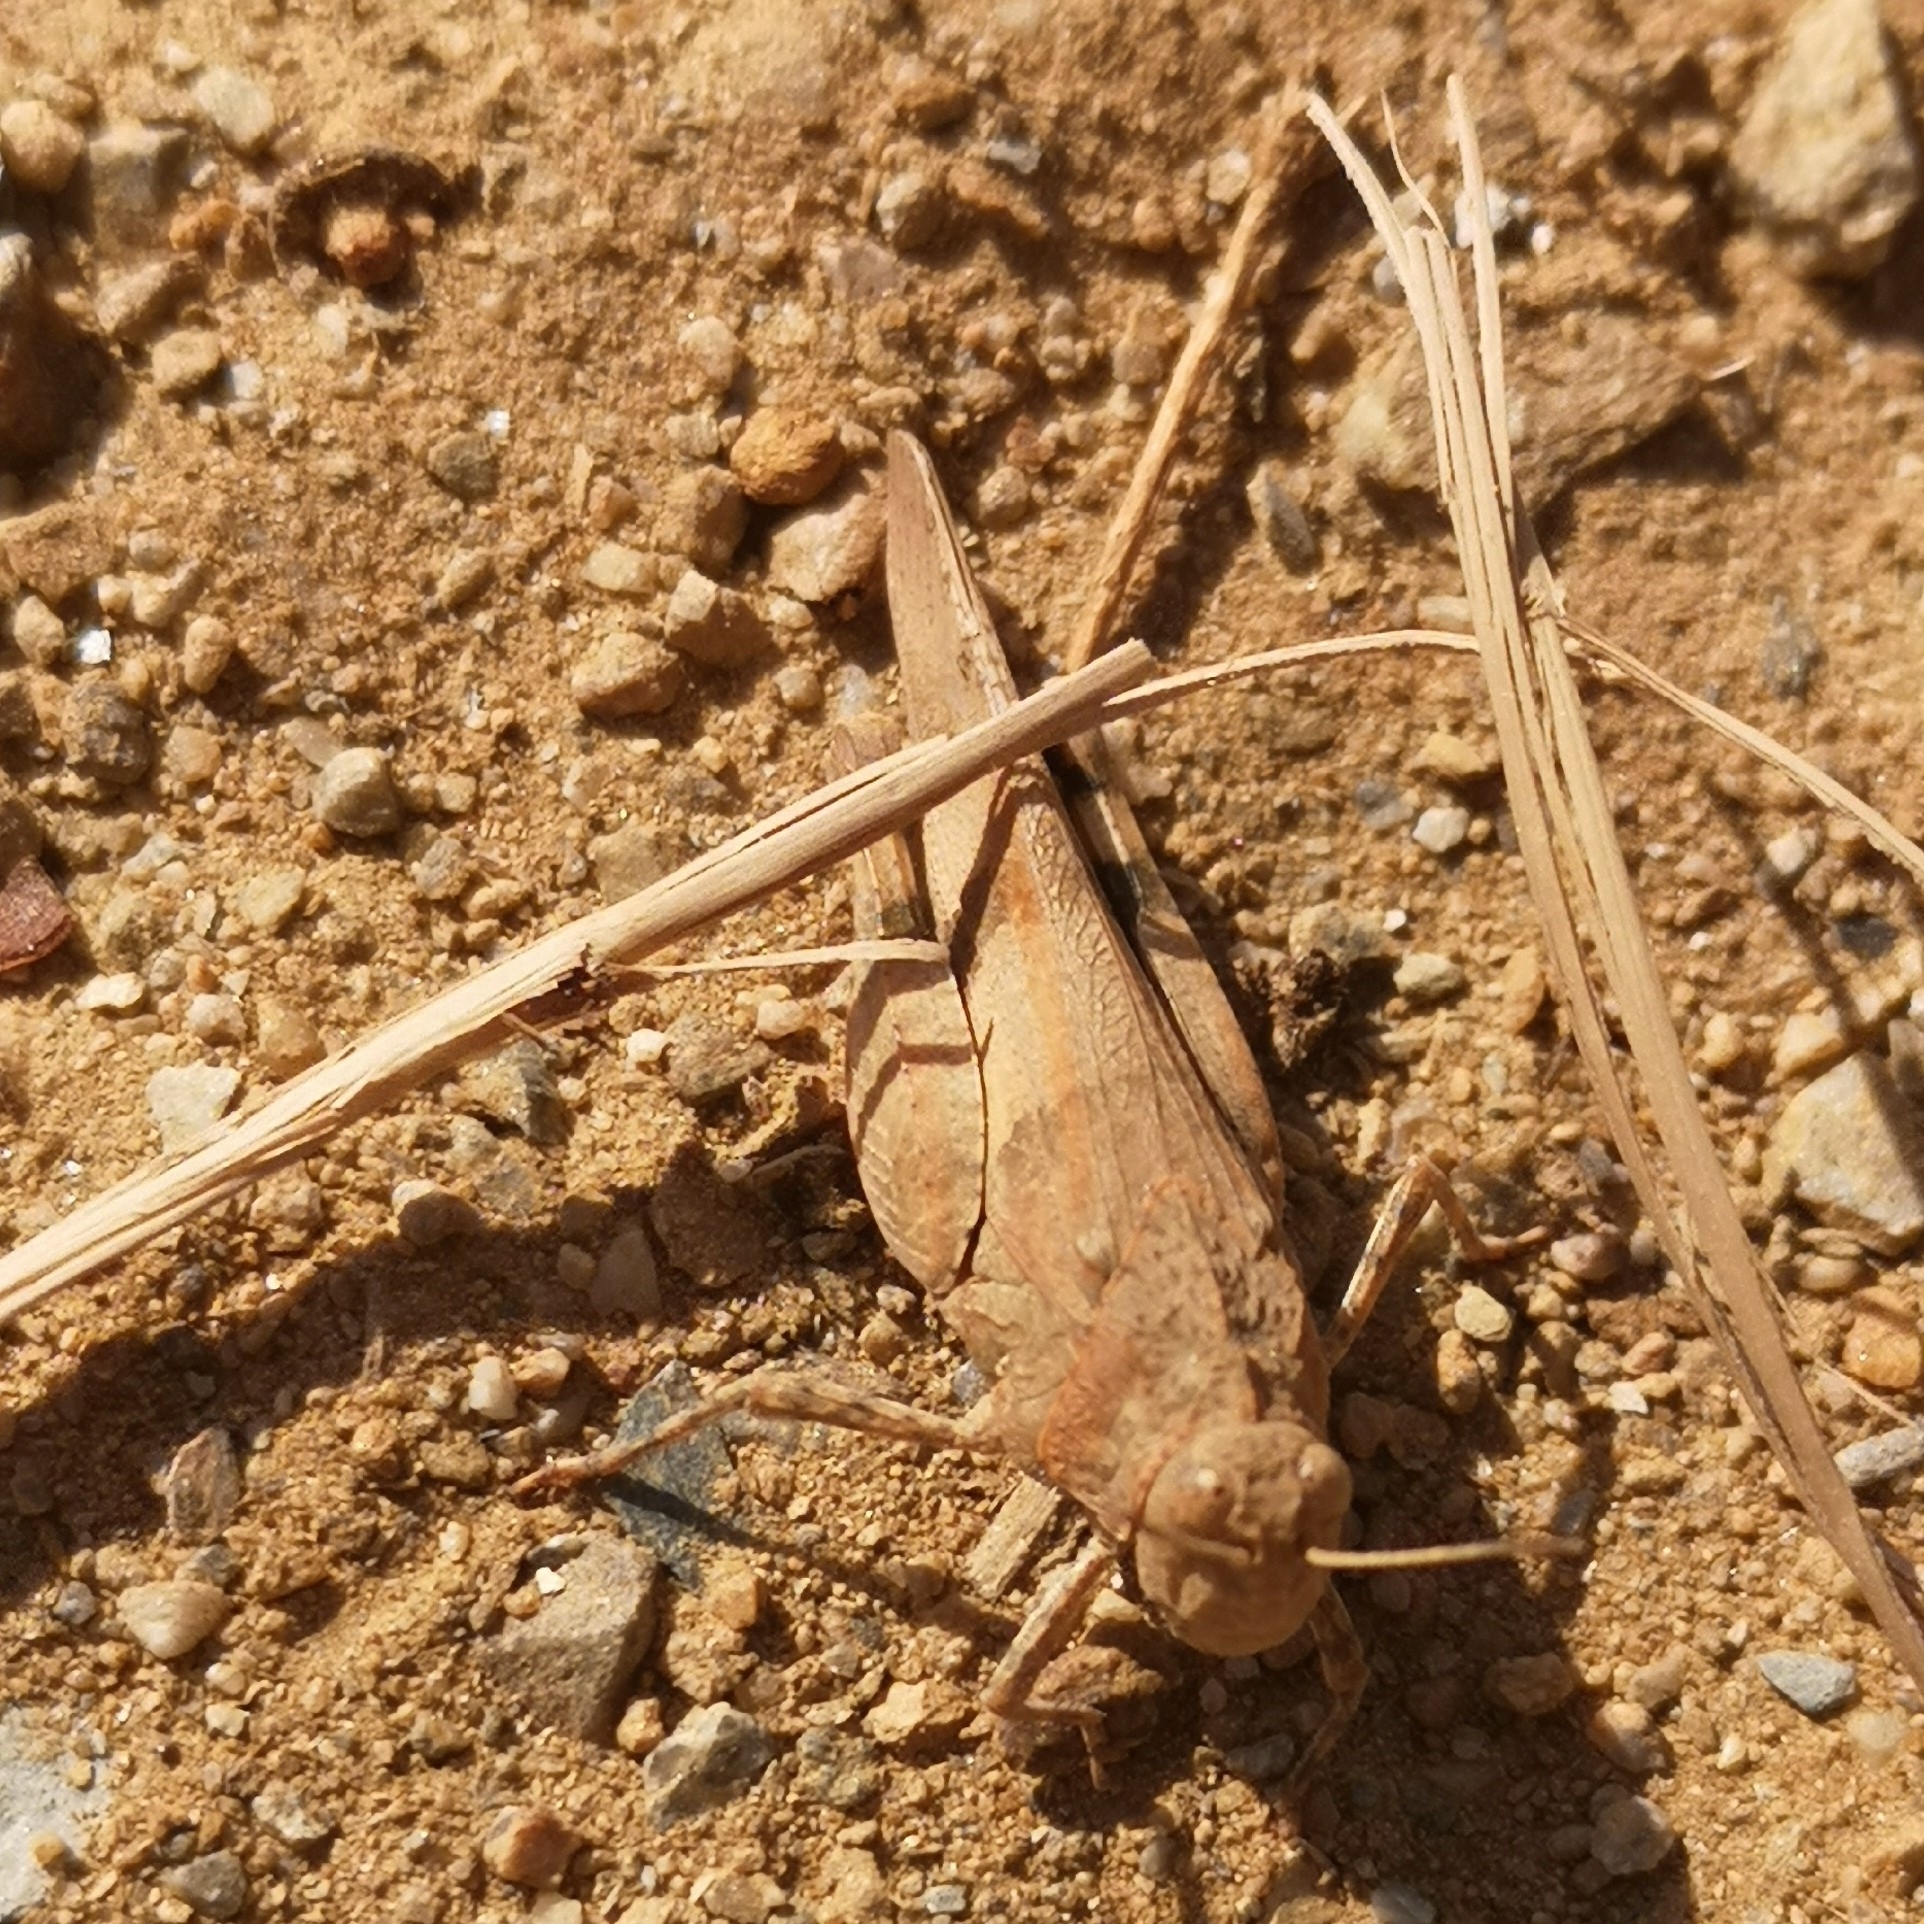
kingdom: Animalia
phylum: Arthropoda
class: Insecta
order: Orthoptera
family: Acrididae
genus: Oedipoda
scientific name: Oedipoda caerulescens
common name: Blue-winged grasshopper
